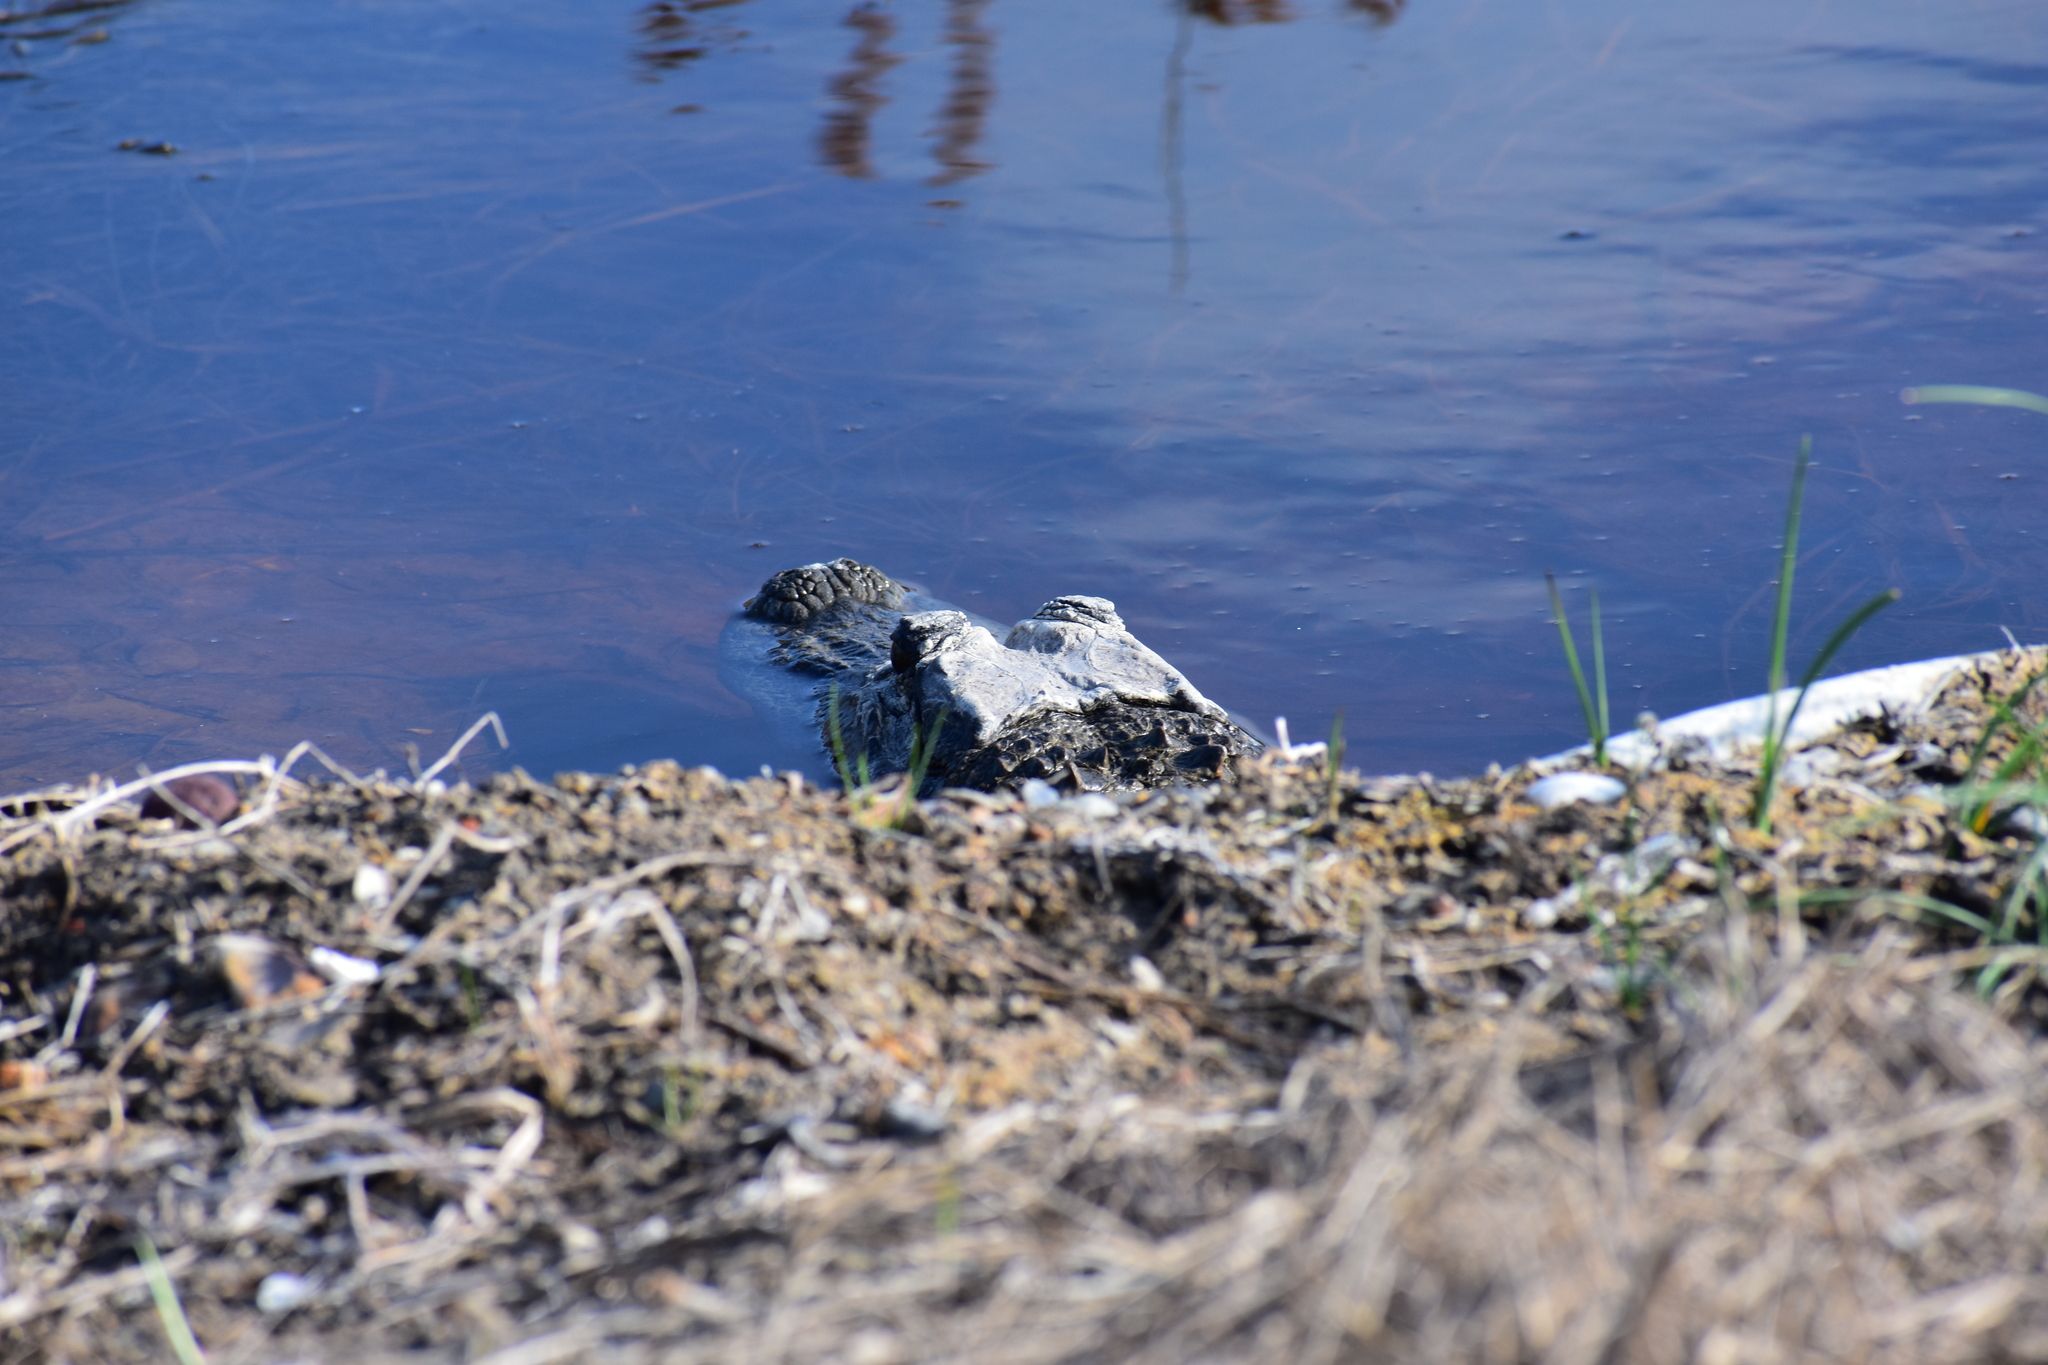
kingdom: Animalia
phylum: Chordata
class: Crocodylia
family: Alligatoridae
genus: Alligator
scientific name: Alligator mississippiensis
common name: American alligator
